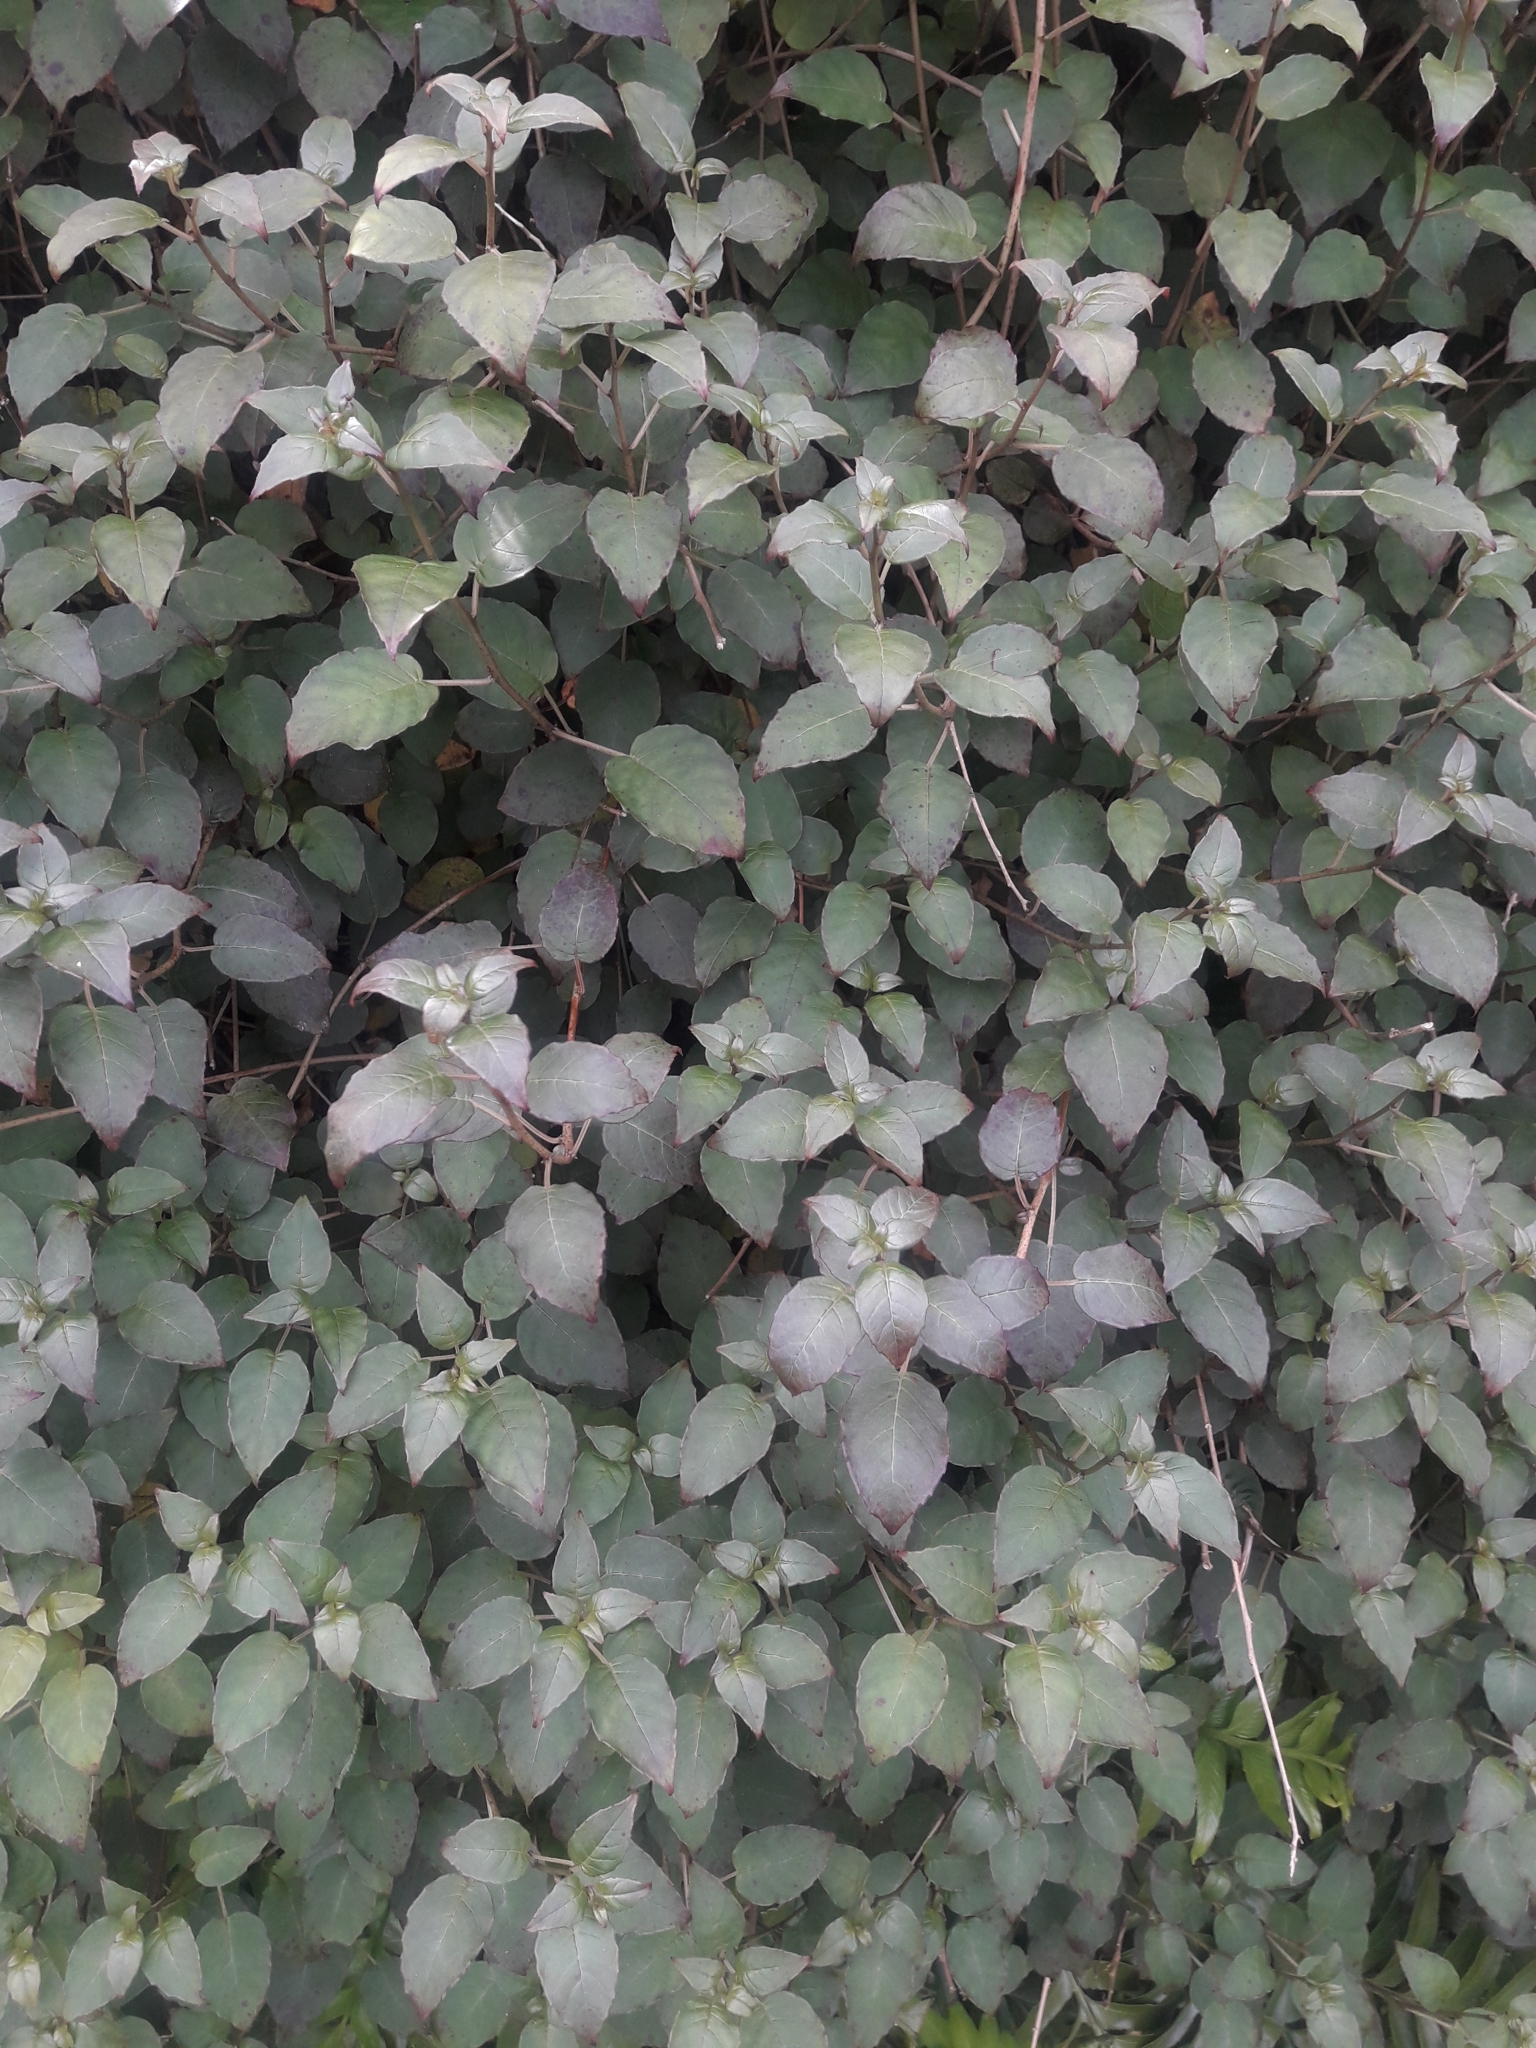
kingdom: Plantae
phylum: Tracheophyta
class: Magnoliopsida
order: Myrtales
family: Onagraceae
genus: Fuchsia
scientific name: Fuchsia colensoi
